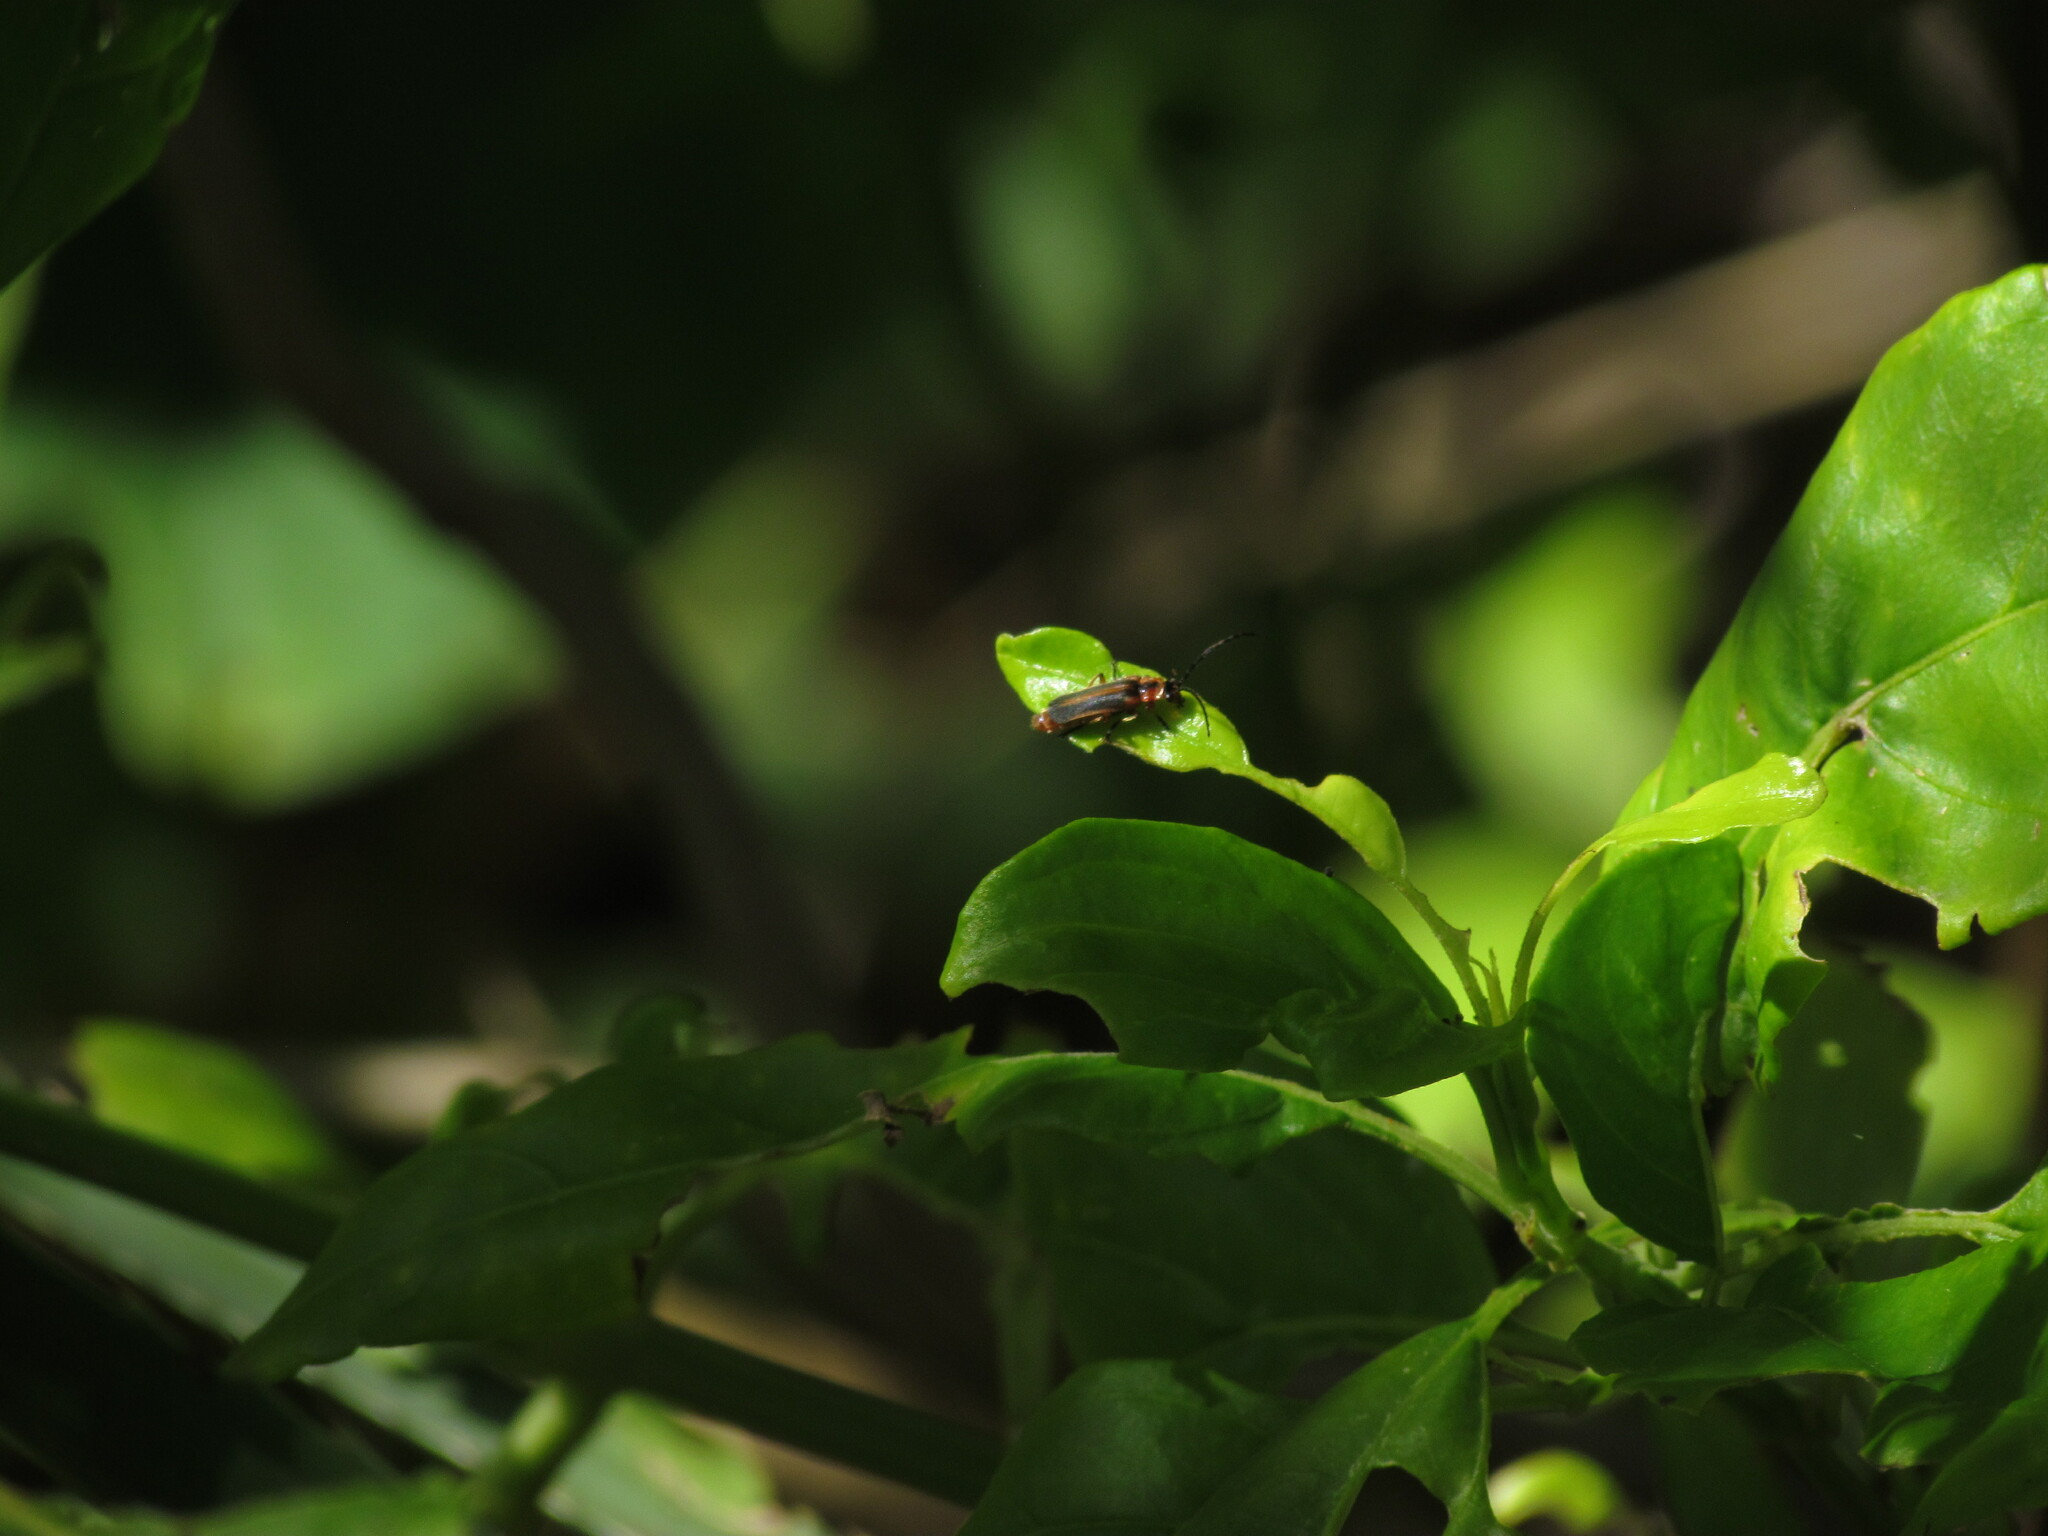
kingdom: Animalia
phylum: Arthropoda
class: Insecta
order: Coleoptera
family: Cantharidae
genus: Discodon
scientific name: Discodon
